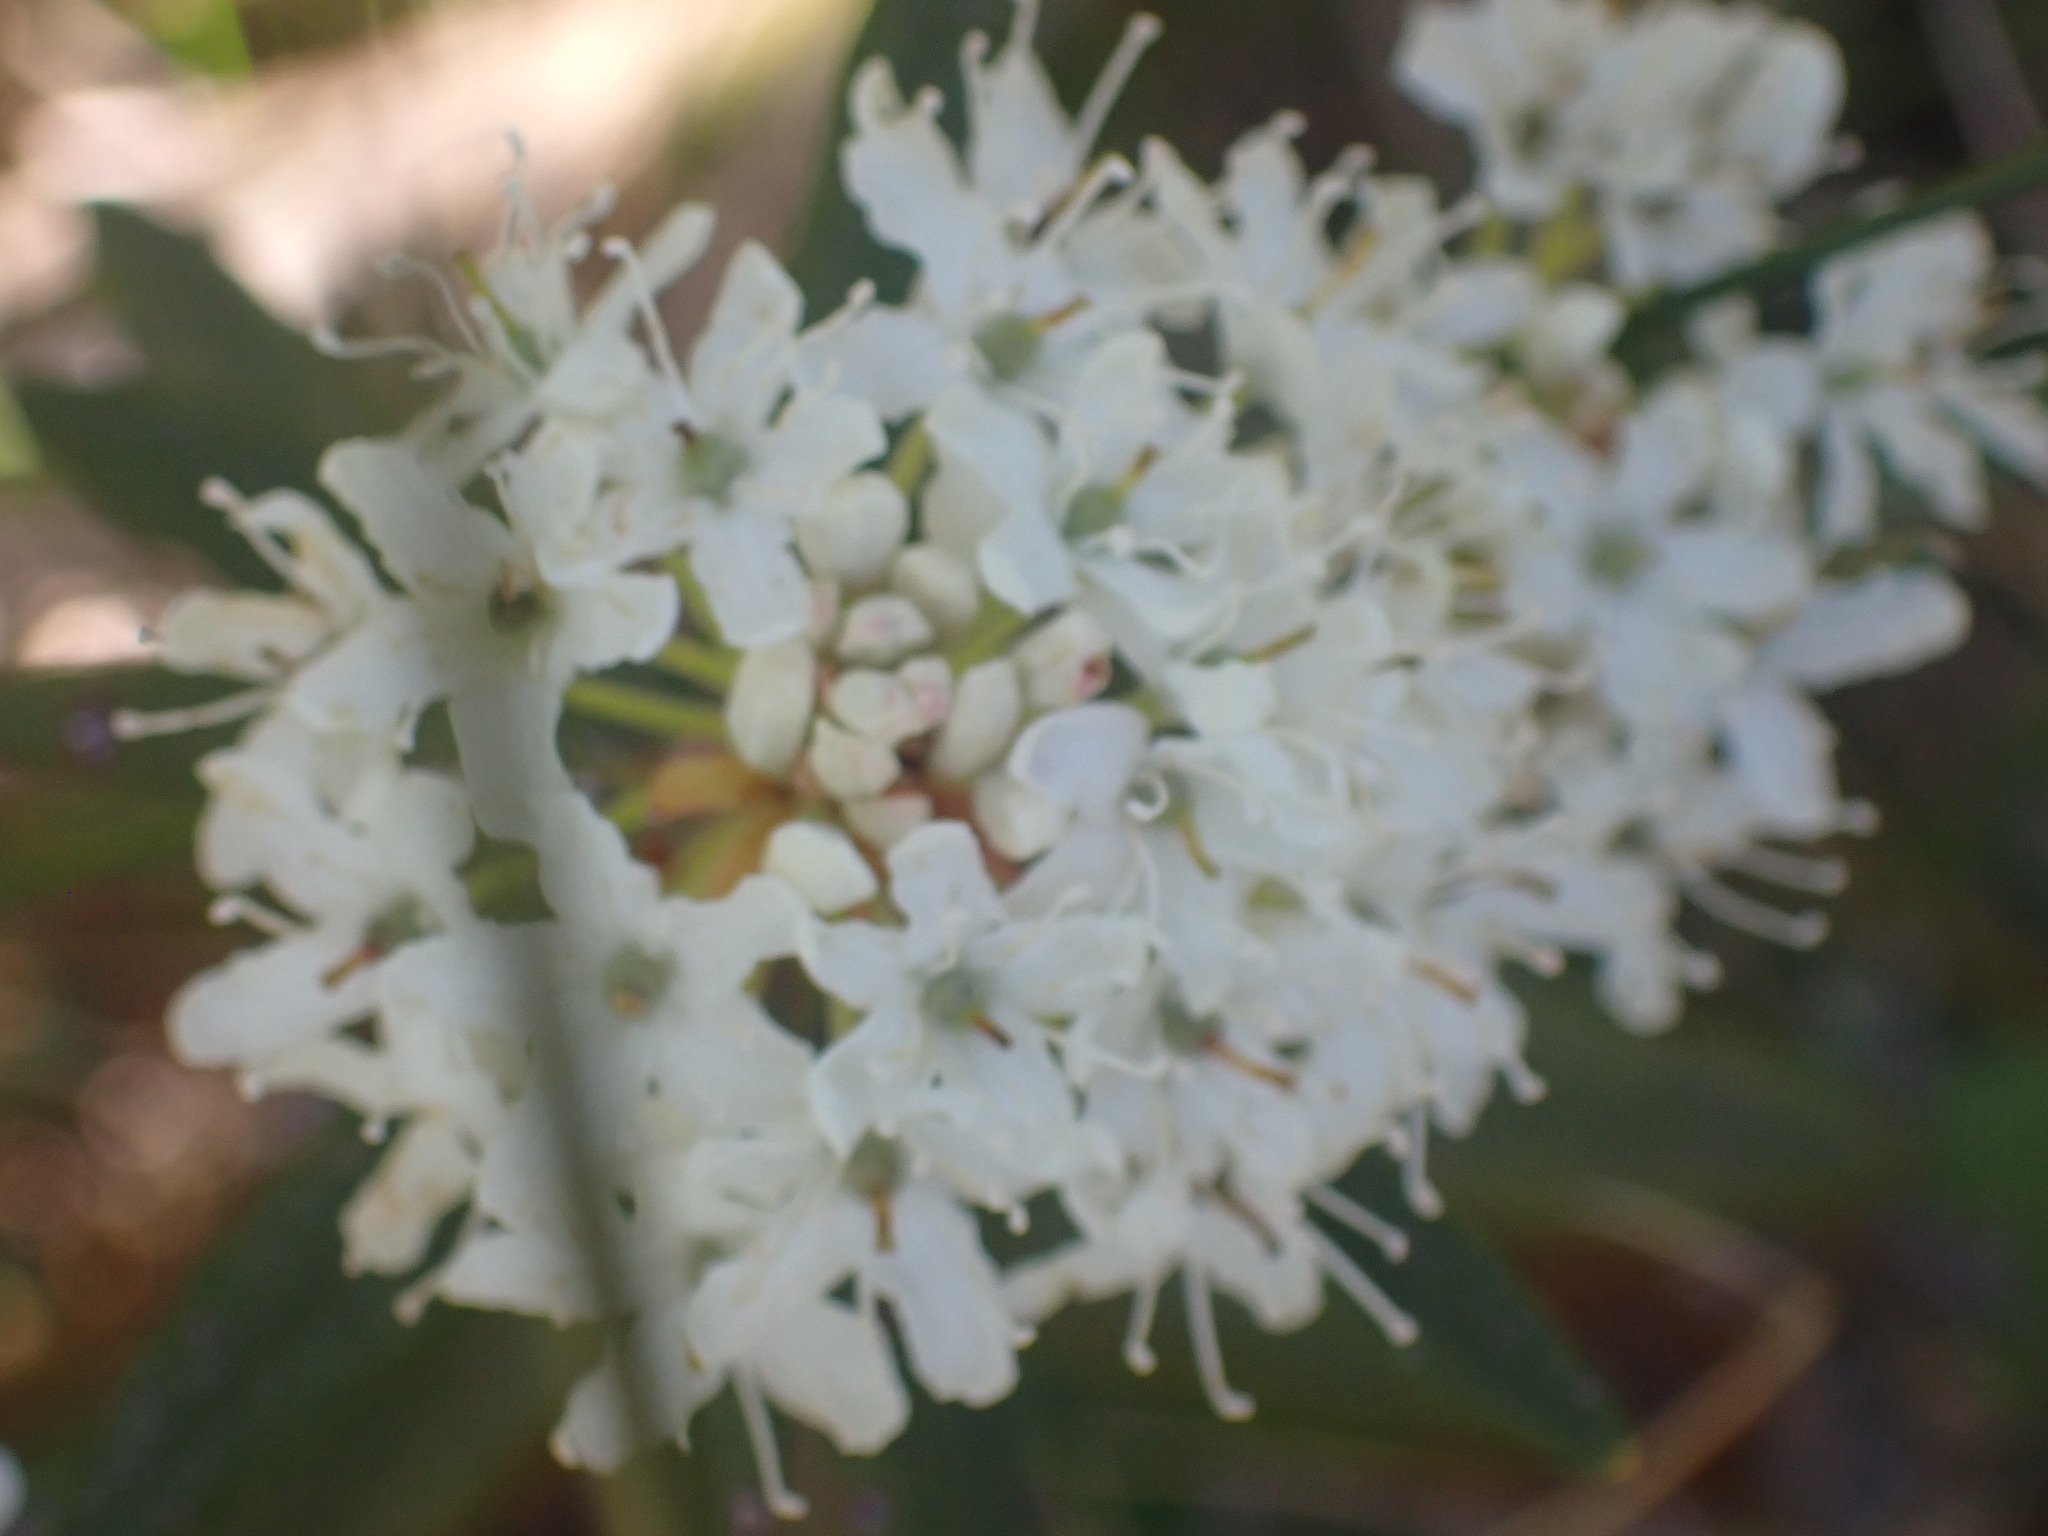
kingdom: Plantae
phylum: Tracheophyta
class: Magnoliopsida
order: Ericales
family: Ericaceae
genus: Rhododendron
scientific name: Rhododendron groenlandicum
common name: Bog labrador tea
